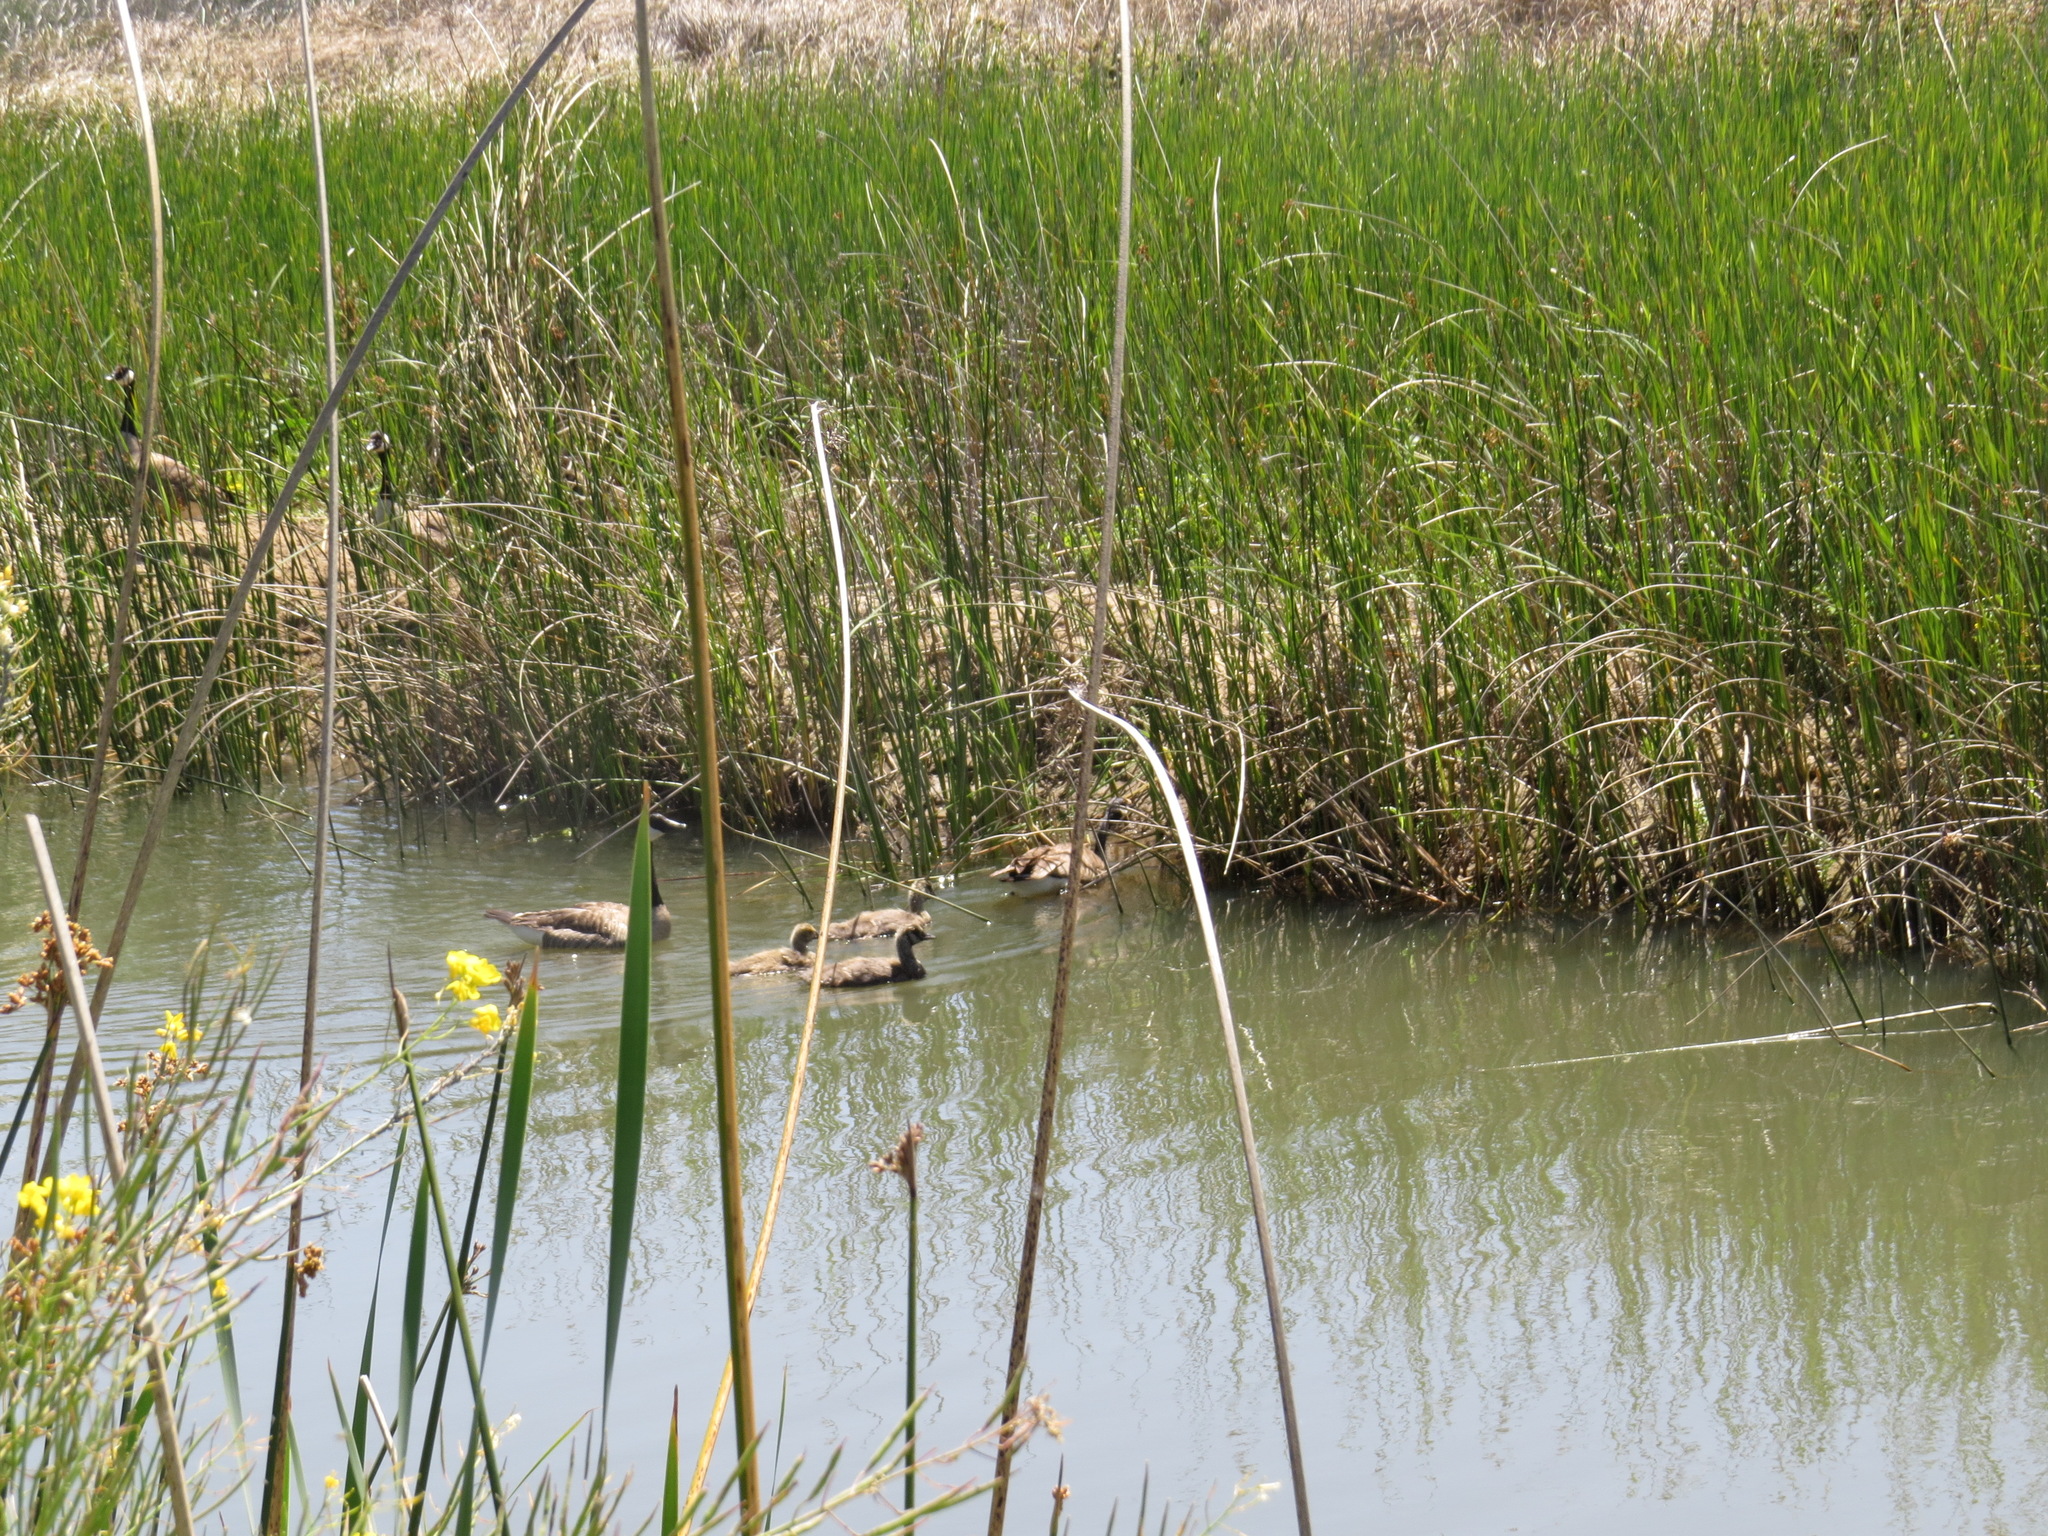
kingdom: Animalia
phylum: Chordata
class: Aves
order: Anseriformes
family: Anatidae
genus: Branta
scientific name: Branta canadensis
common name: Canada goose
